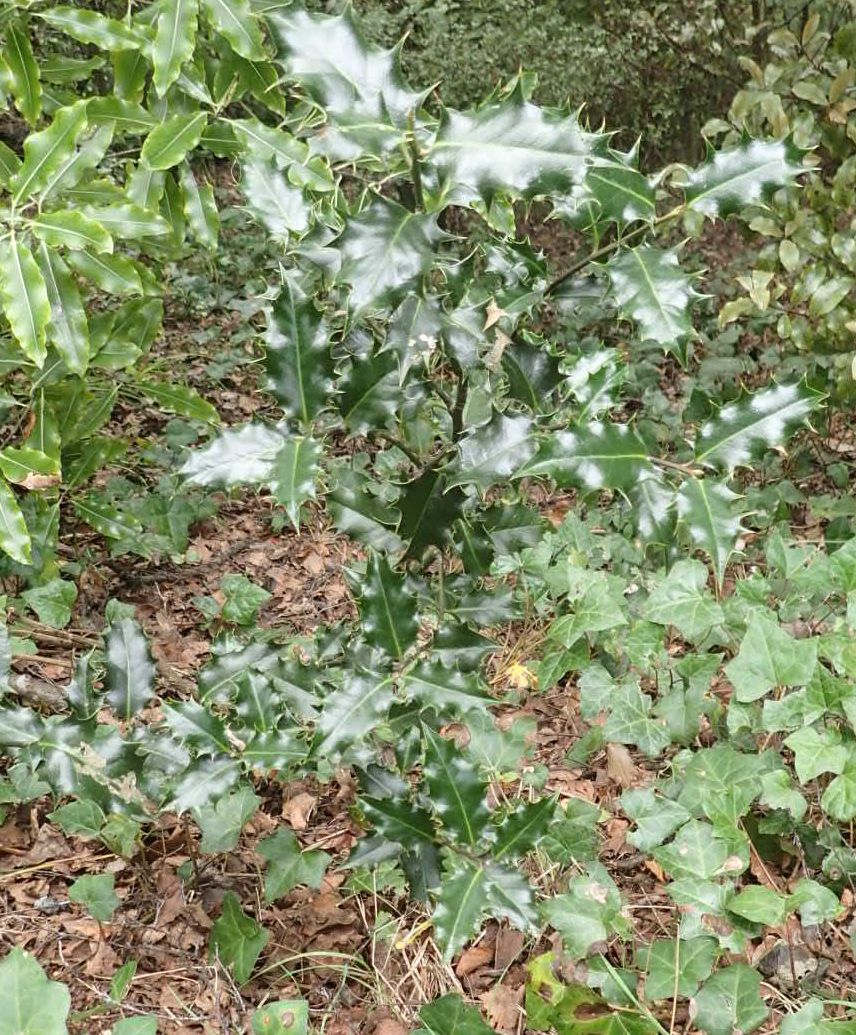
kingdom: Plantae
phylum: Tracheophyta
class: Magnoliopsida
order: Aquifoliales
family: Aquifoliaceae
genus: Ilex
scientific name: Ilex aquifolium
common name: English holly
